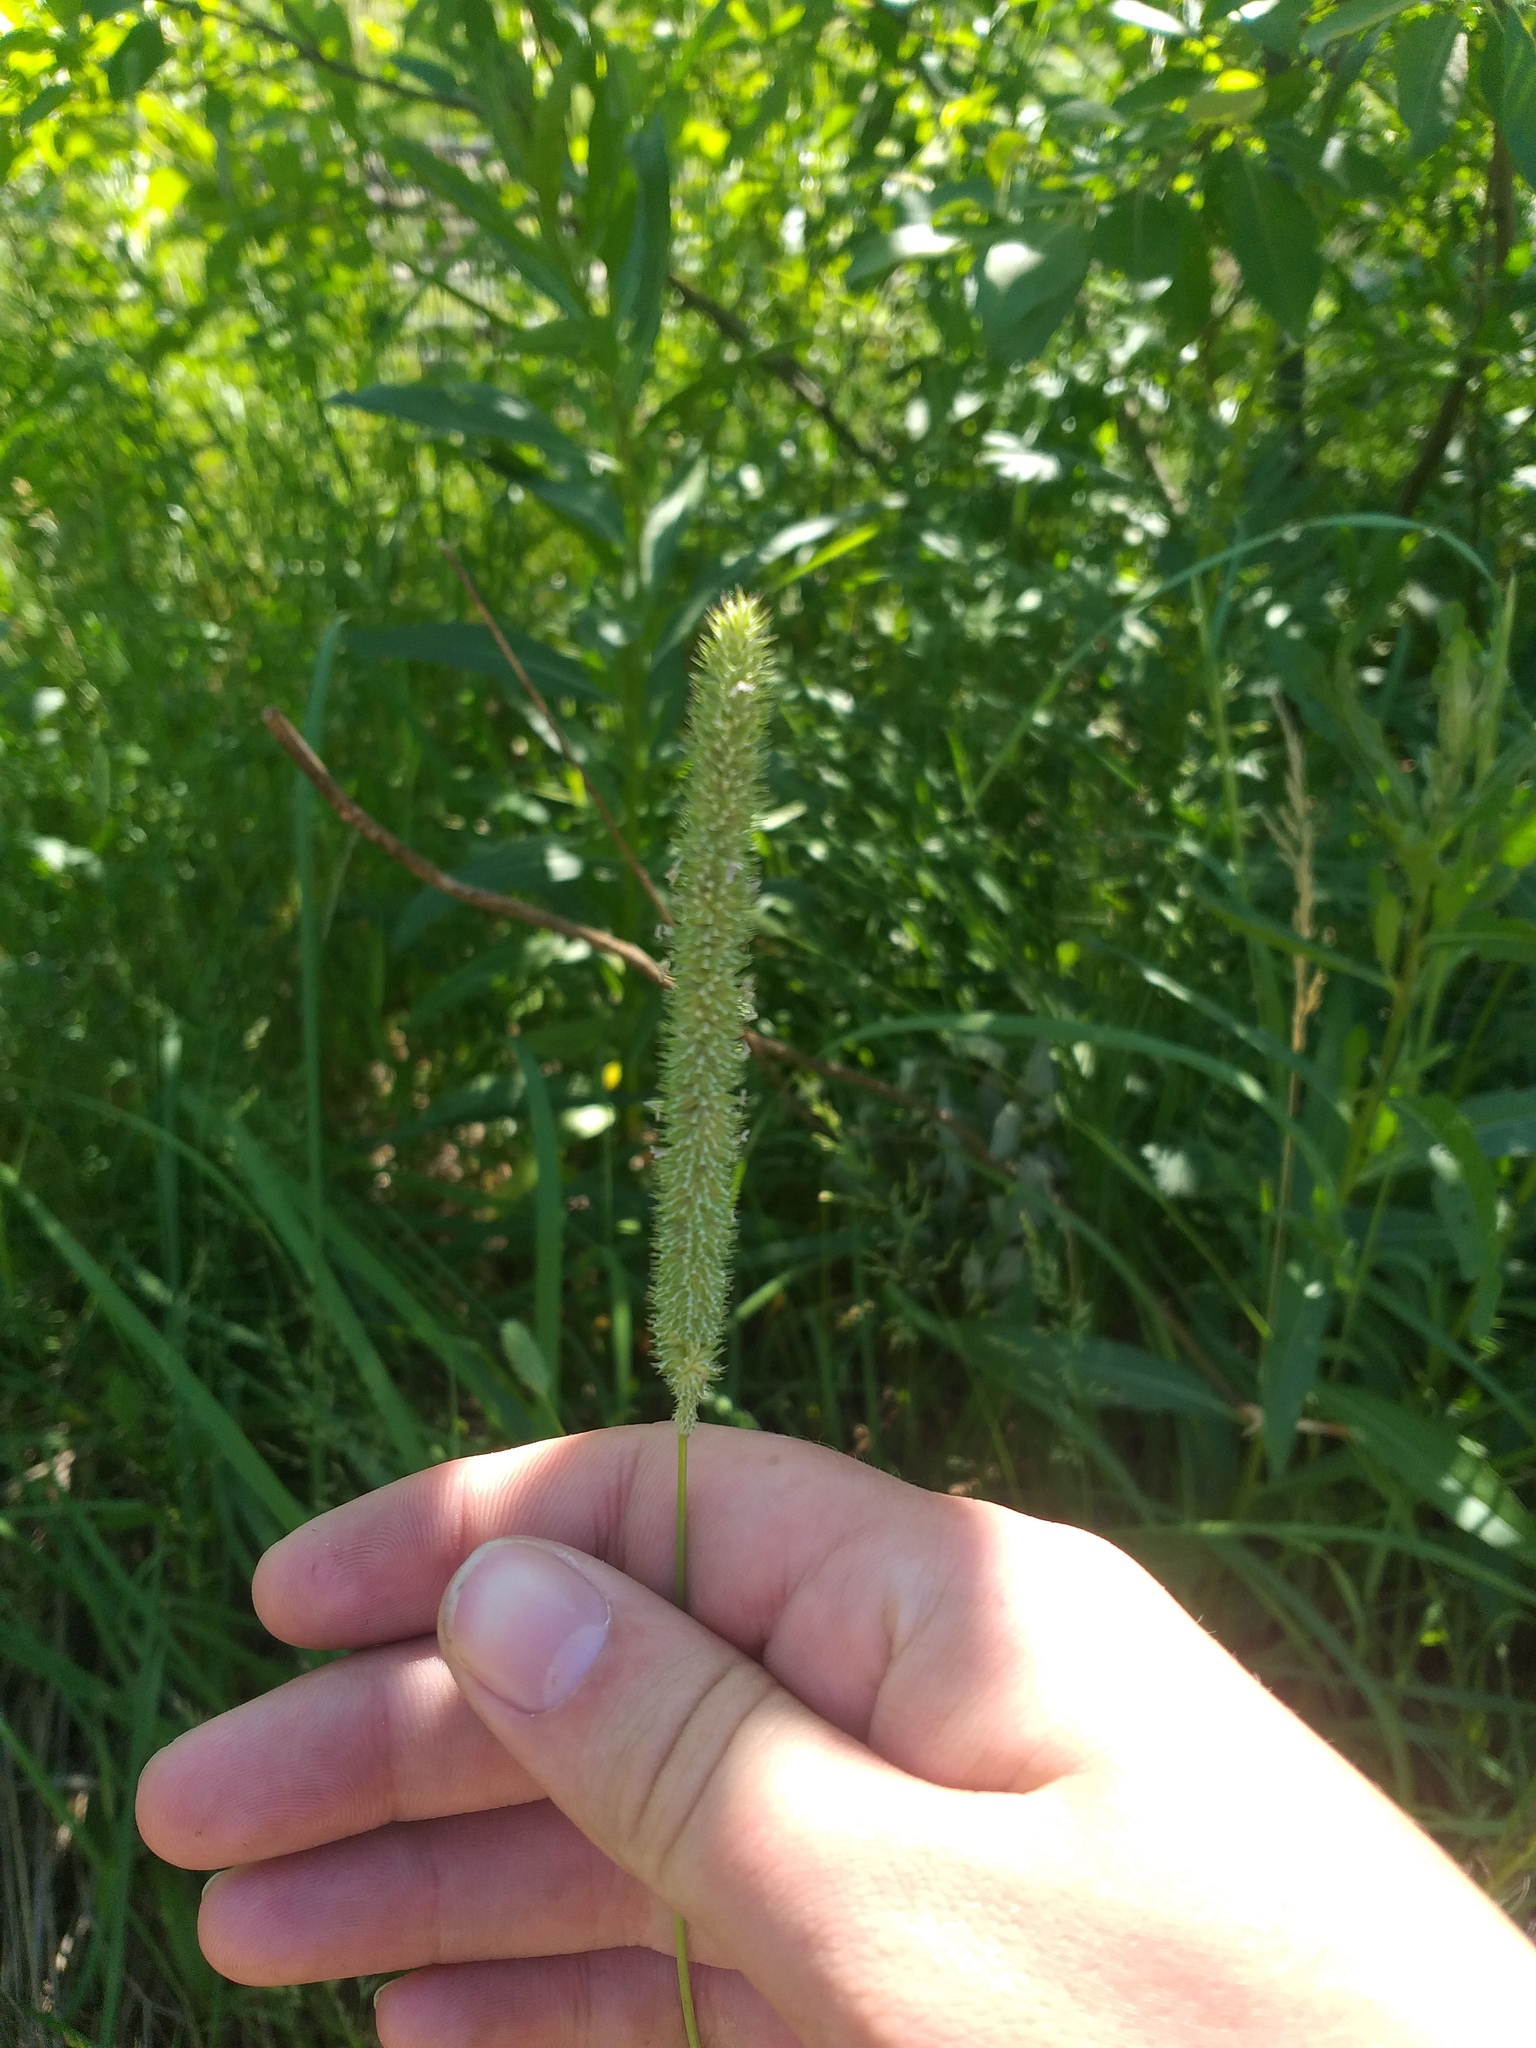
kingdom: Plantae
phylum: Tracheophyta
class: Liliopsida
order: Poales
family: Poaceae
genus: Phleum
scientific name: Phleum pratense
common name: Timothy grass
